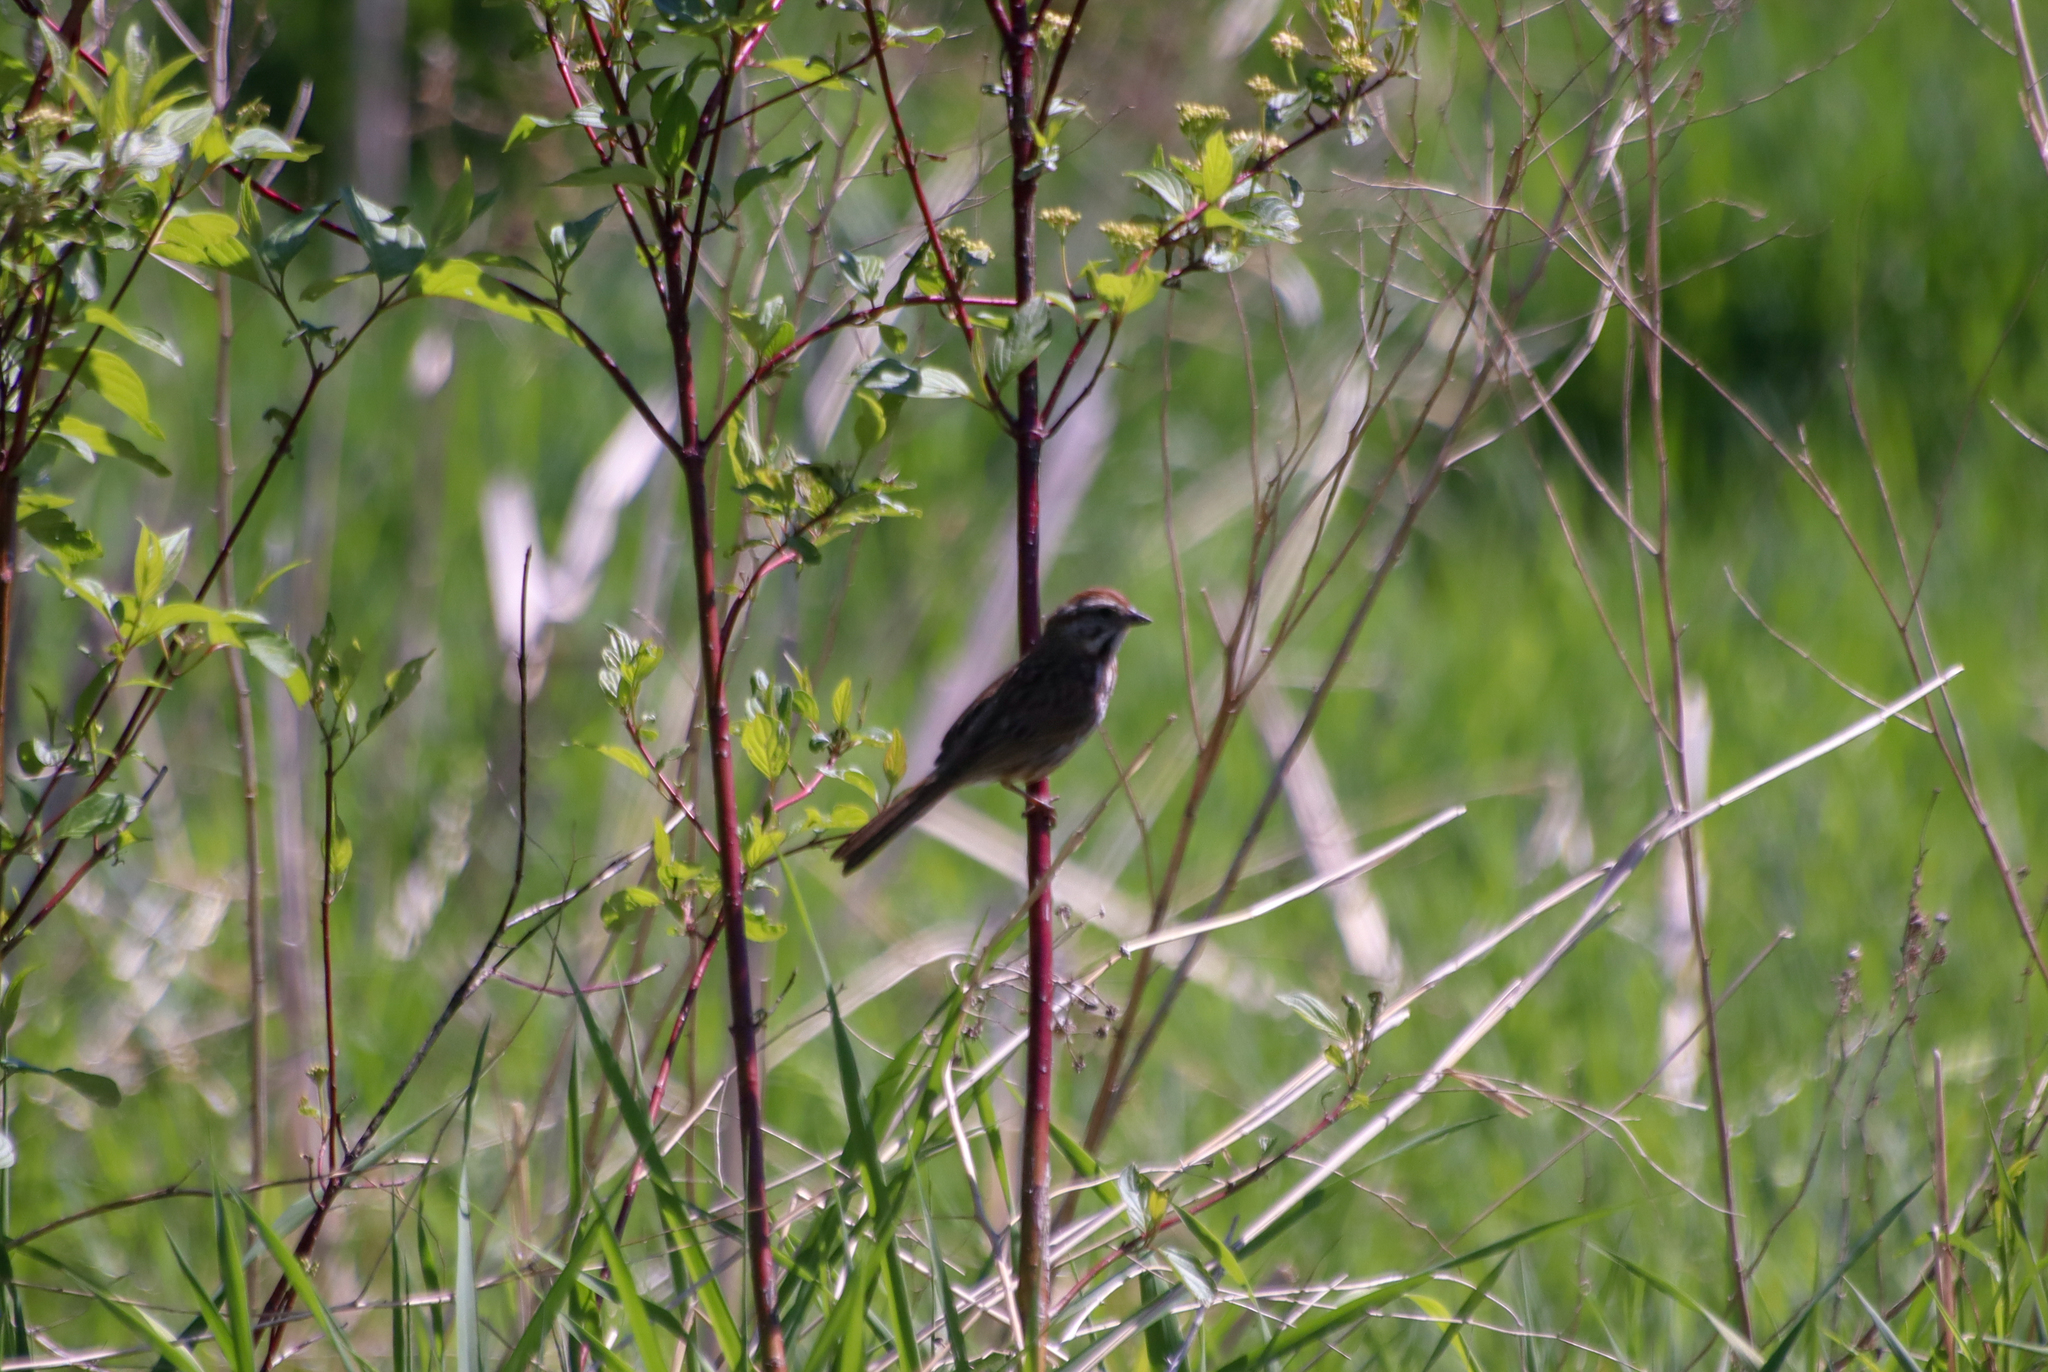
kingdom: Animalia
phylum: Chordata
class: Aves
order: Passeriformes
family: Passerellidae
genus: Melospiza
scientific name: Melospiza melodia
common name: Song sparrow
